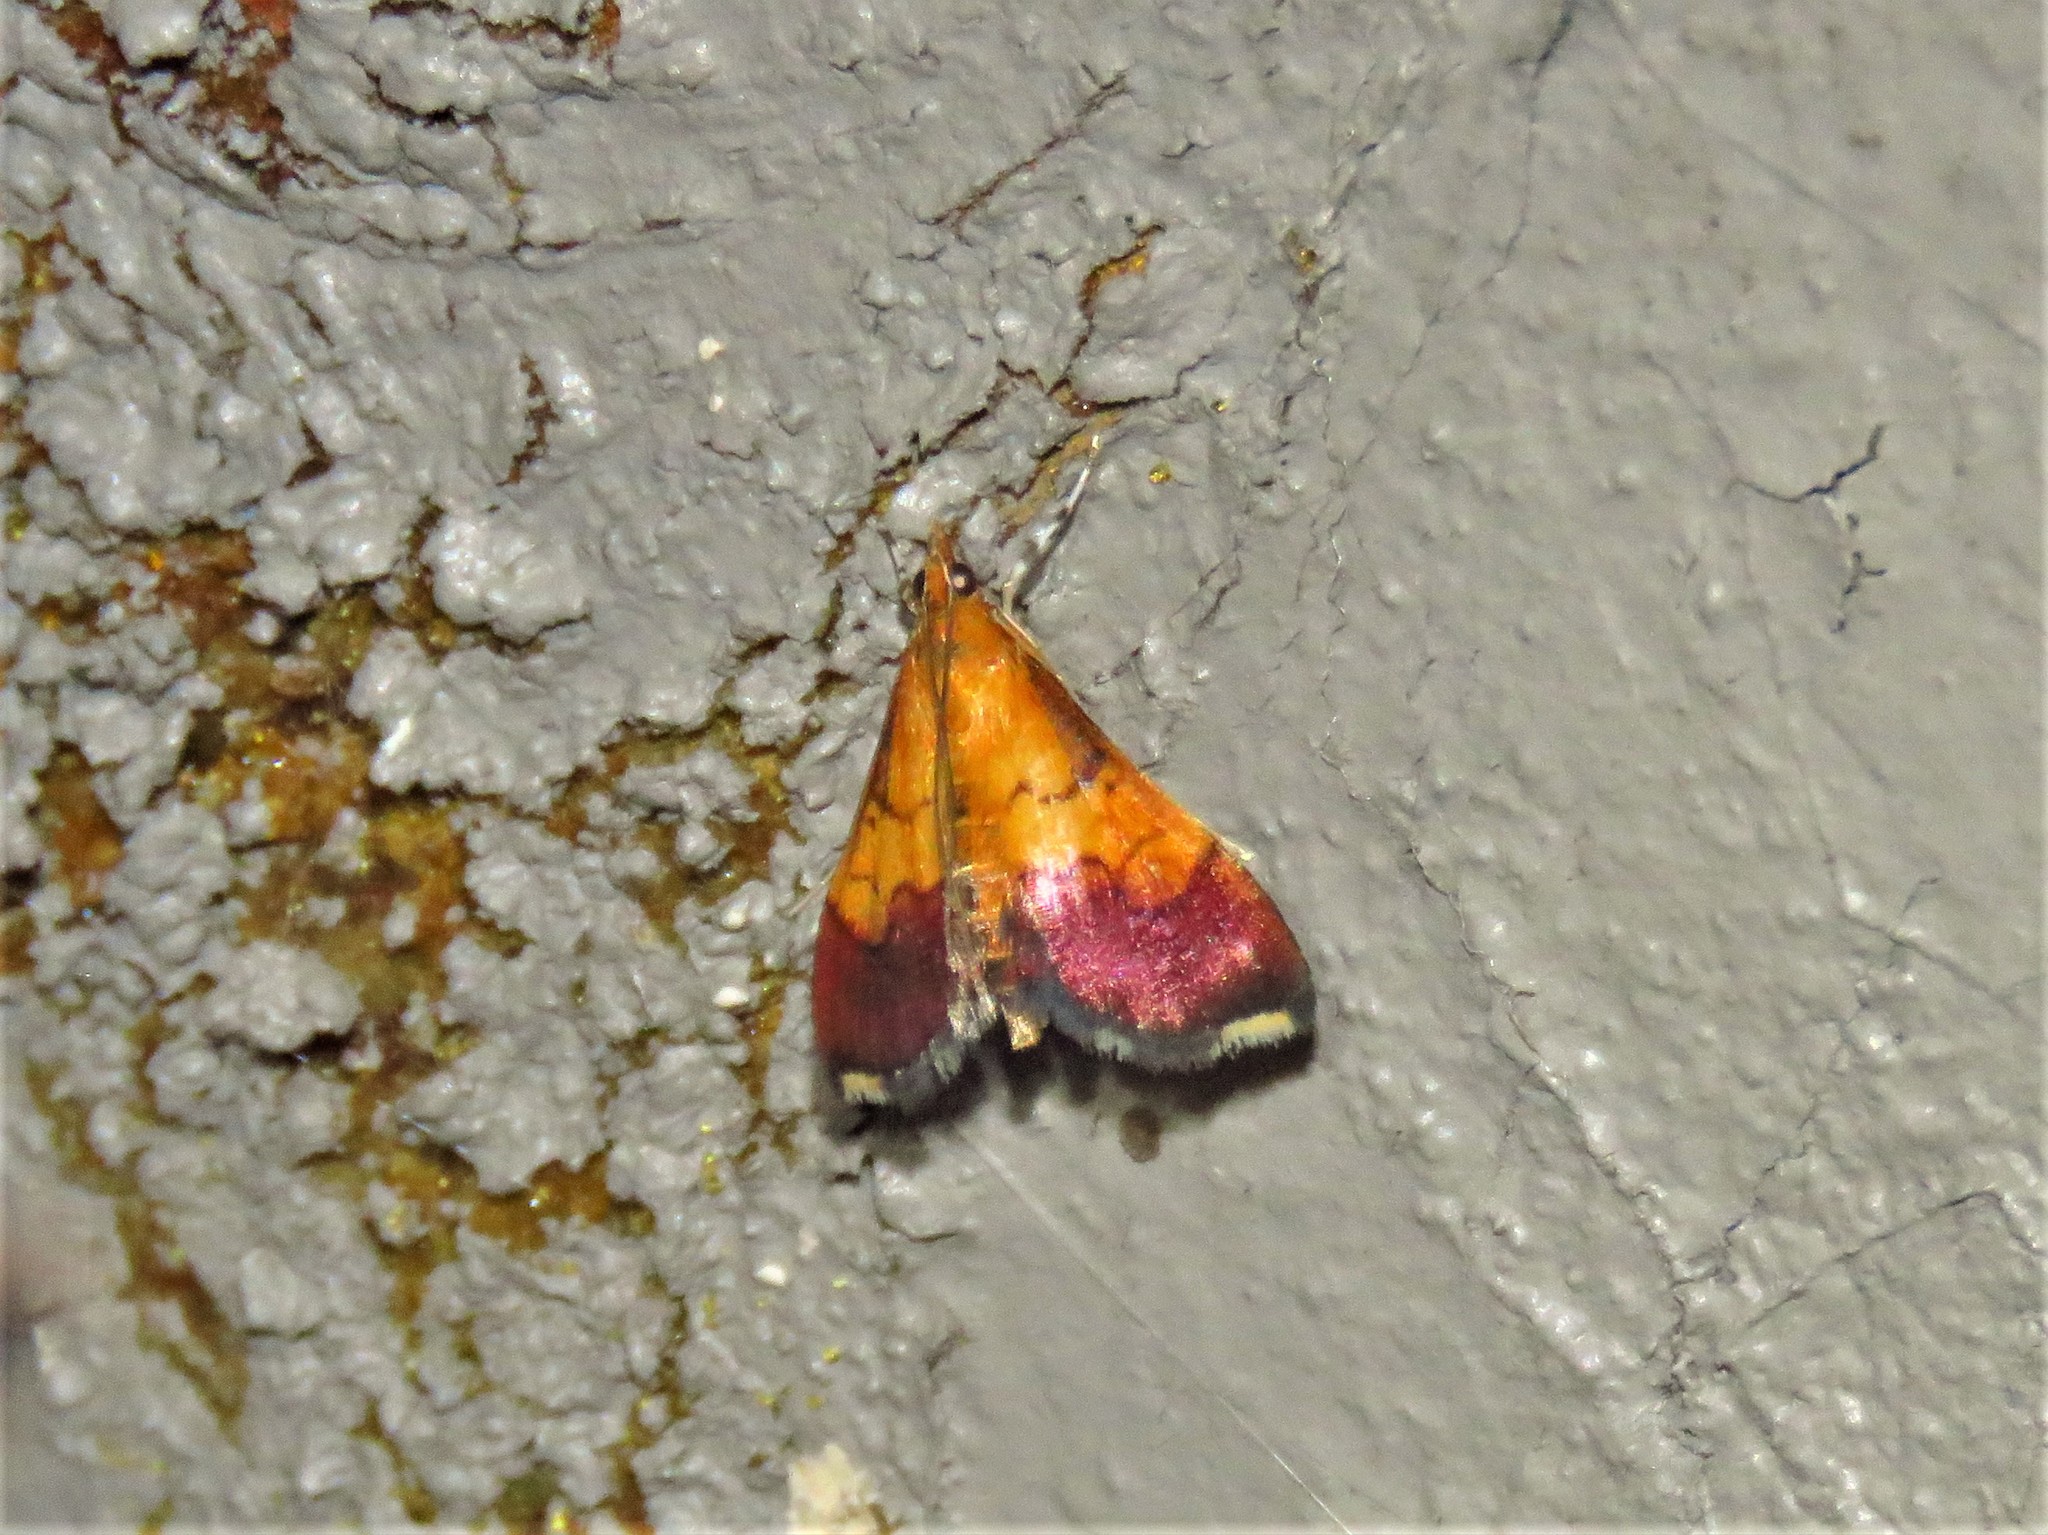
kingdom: Animalia
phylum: Arthropoda
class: Insecta
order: Lepidoptera
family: Crambidae
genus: Pyrausta
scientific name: Pyrausta bicoloralis
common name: Bicolored pyrausta moth
